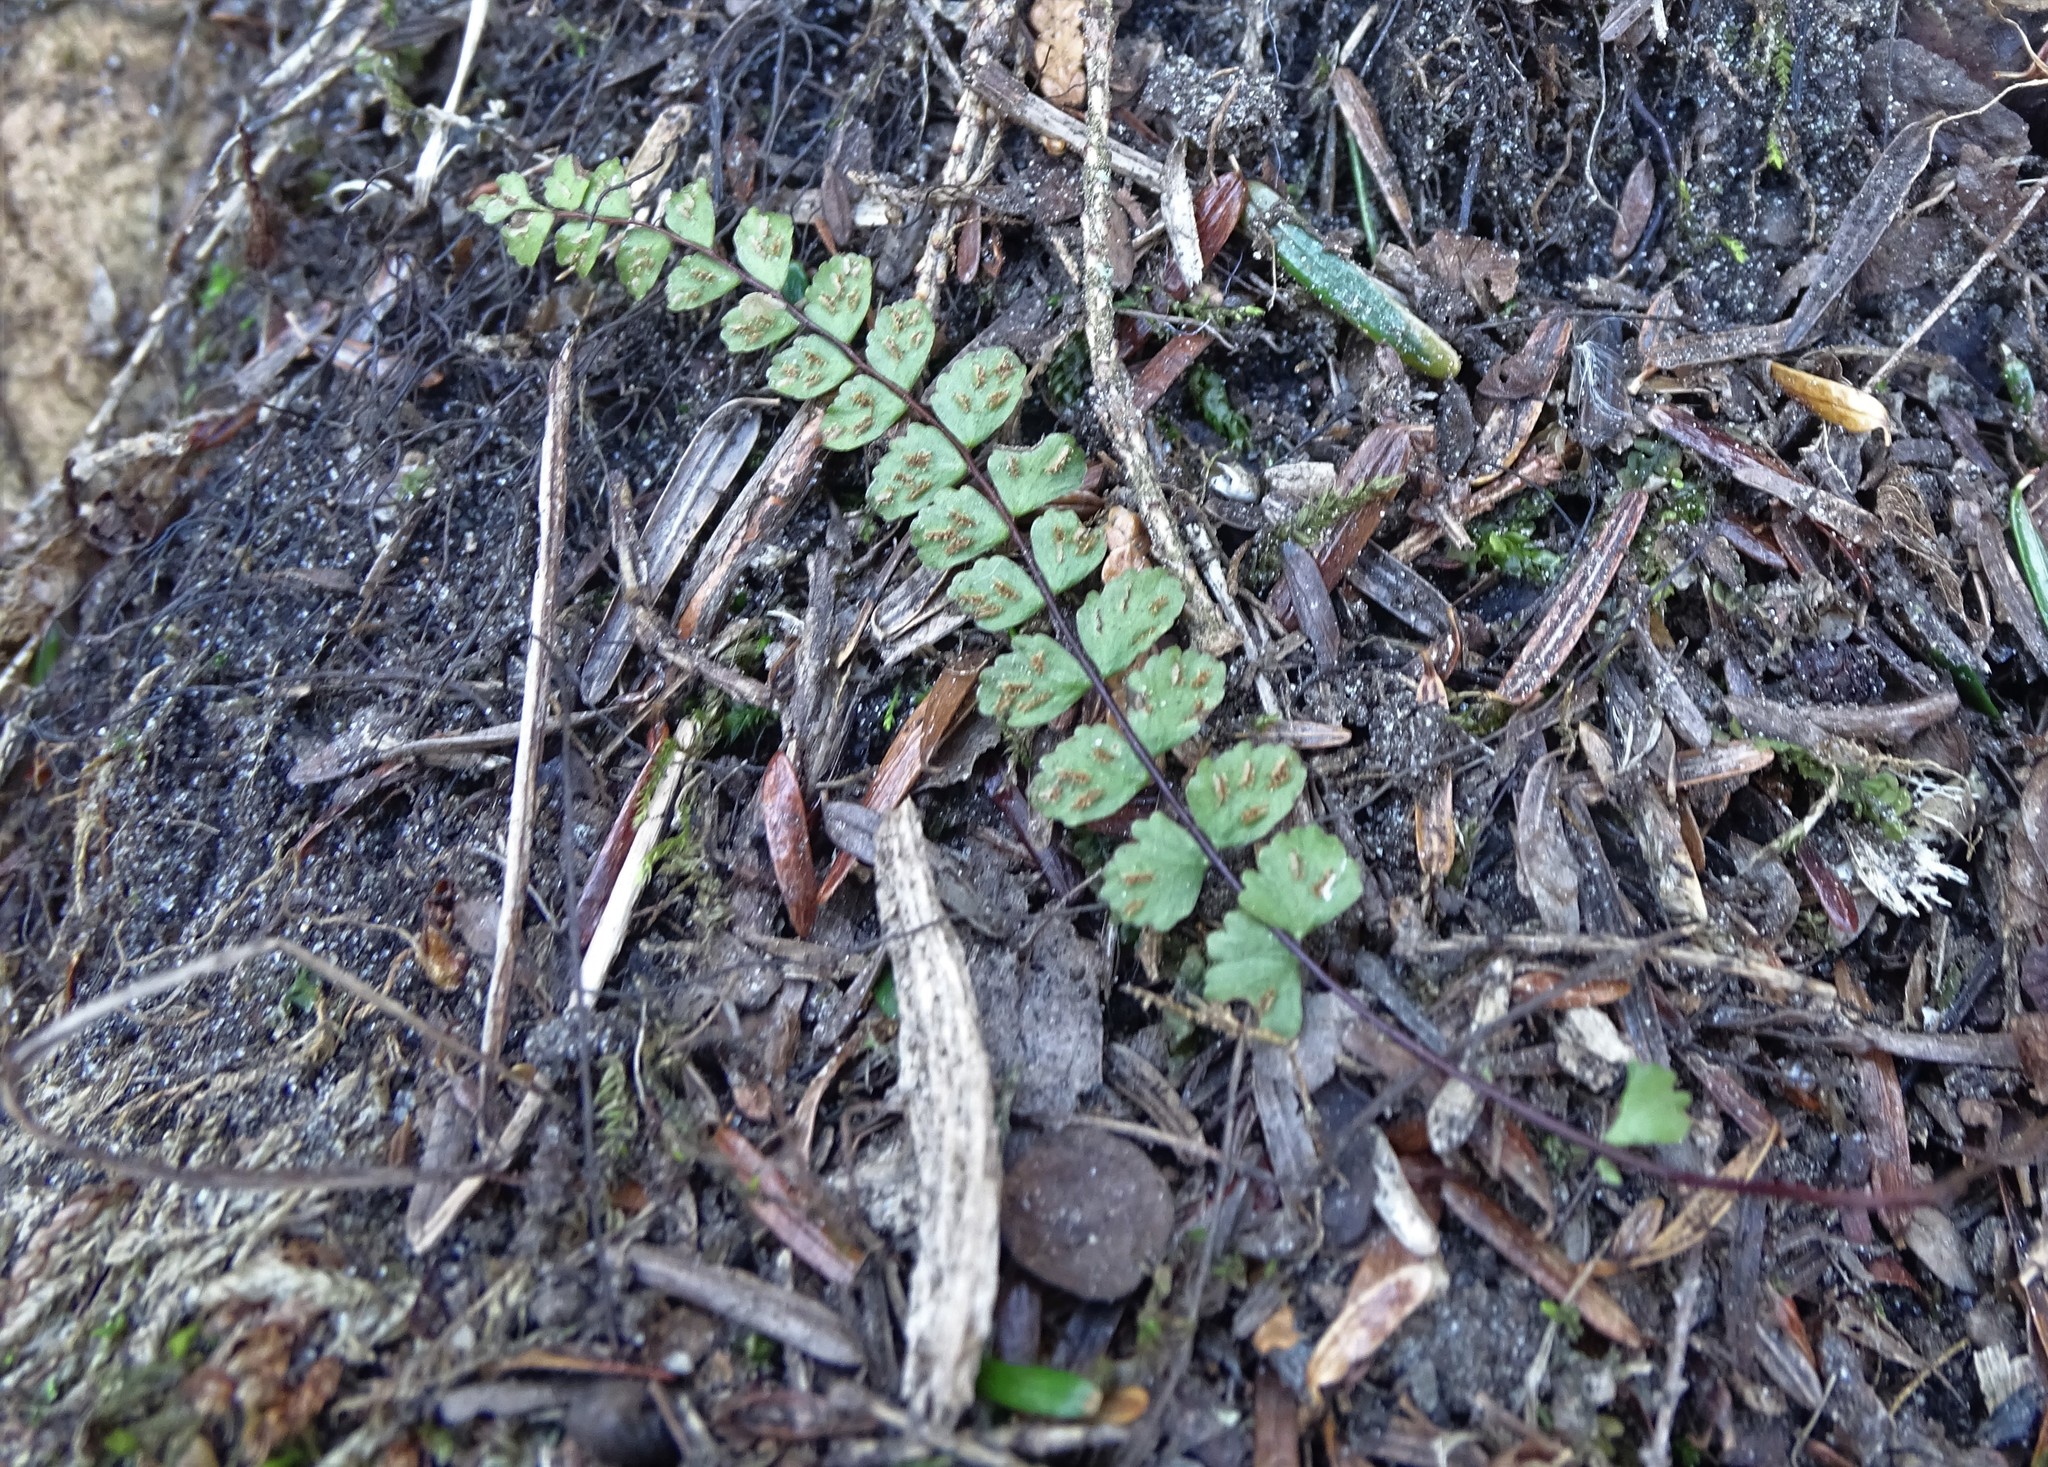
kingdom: Plantae
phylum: Tracheophyta
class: Polypodiopsida
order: Polypodiales
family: Aspleniaceae
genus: Asplenium
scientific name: Asplenium trichomanes
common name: Maidenhair spleenwort
